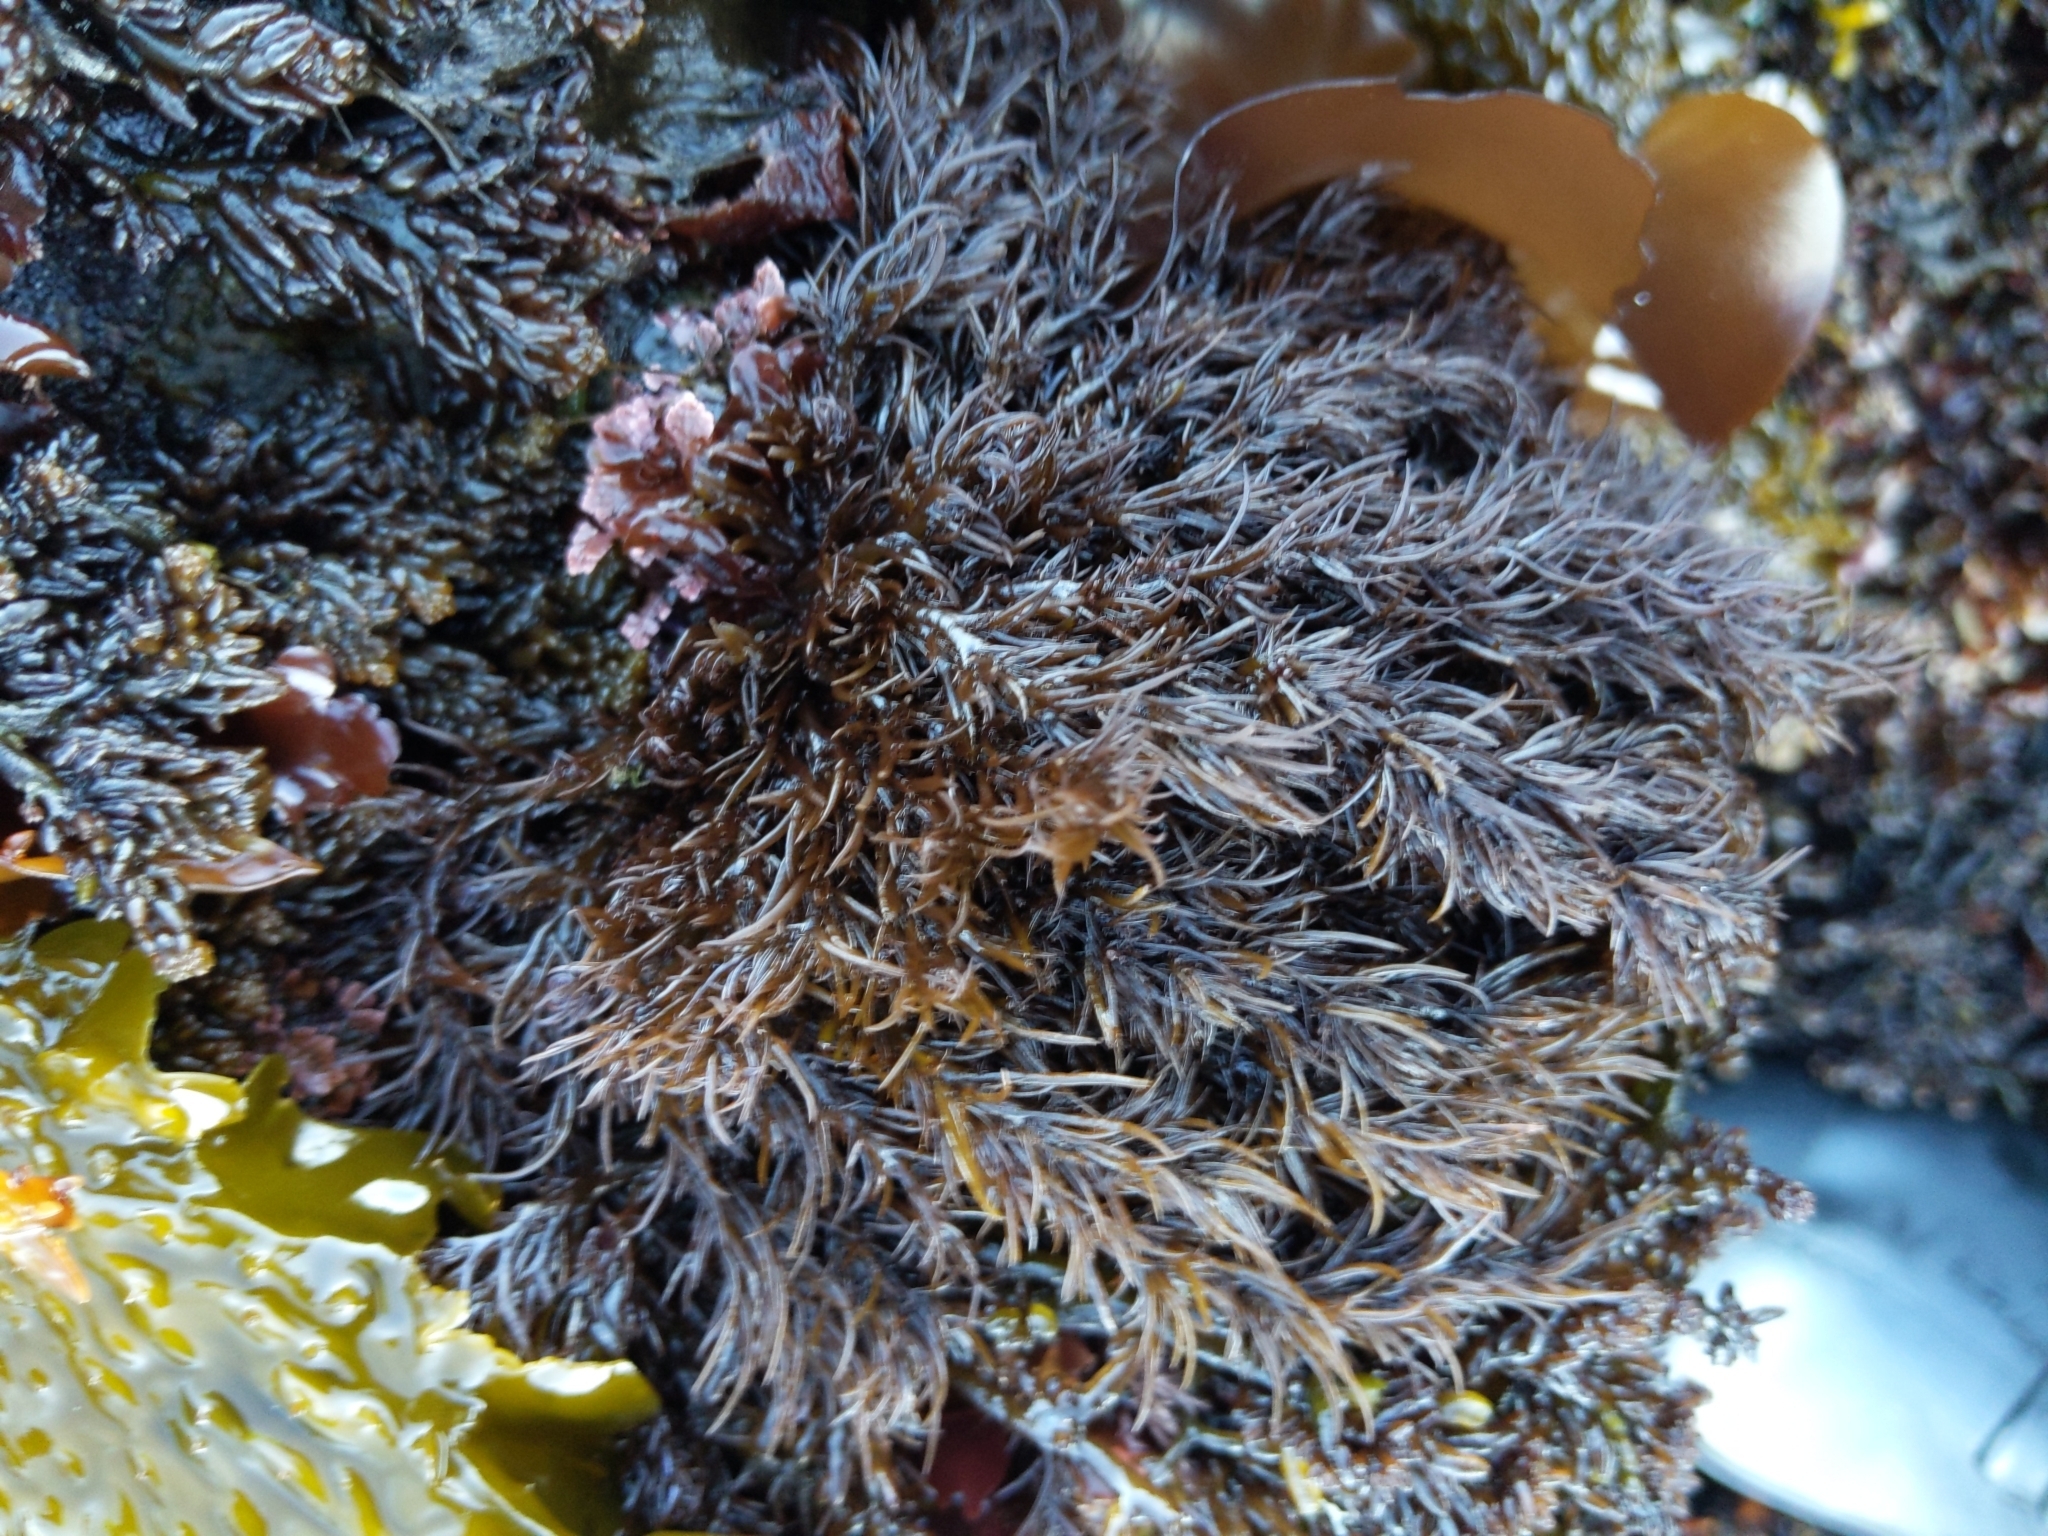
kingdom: Plantae
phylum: Rhodophyta
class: Florideophyceae
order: Ceramiales
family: Rhodomelaceae
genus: Neorhodomela
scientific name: Neorhodomela larix
